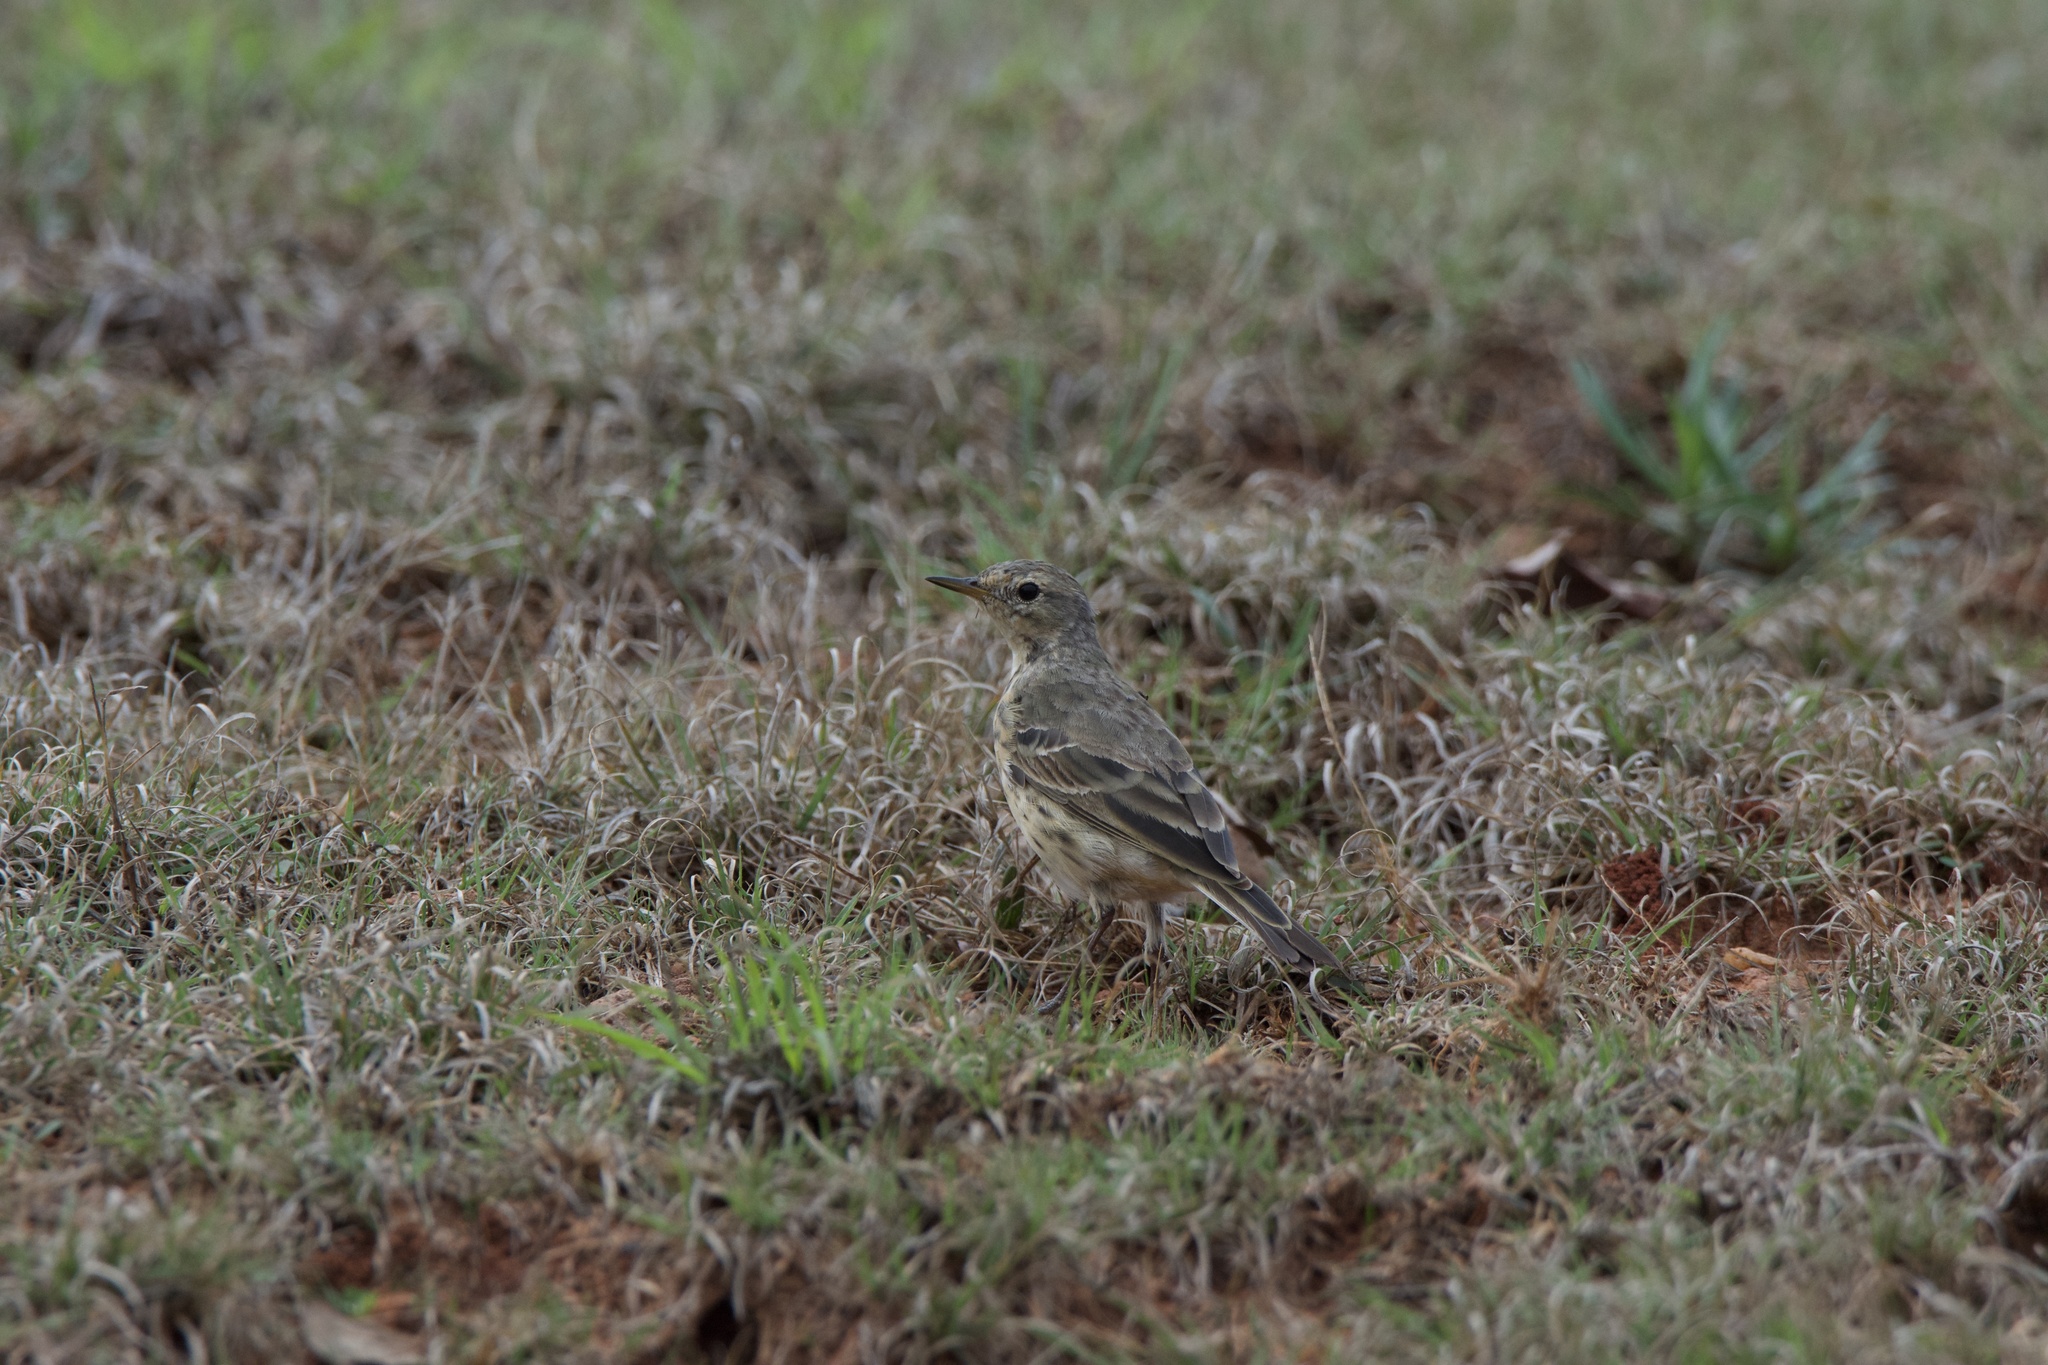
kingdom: Animalia
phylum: Chordata
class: Aves
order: Passeriformes
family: Motacillidae
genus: Anthus
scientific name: Anthus rubescens
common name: Buff-bellied pipit
